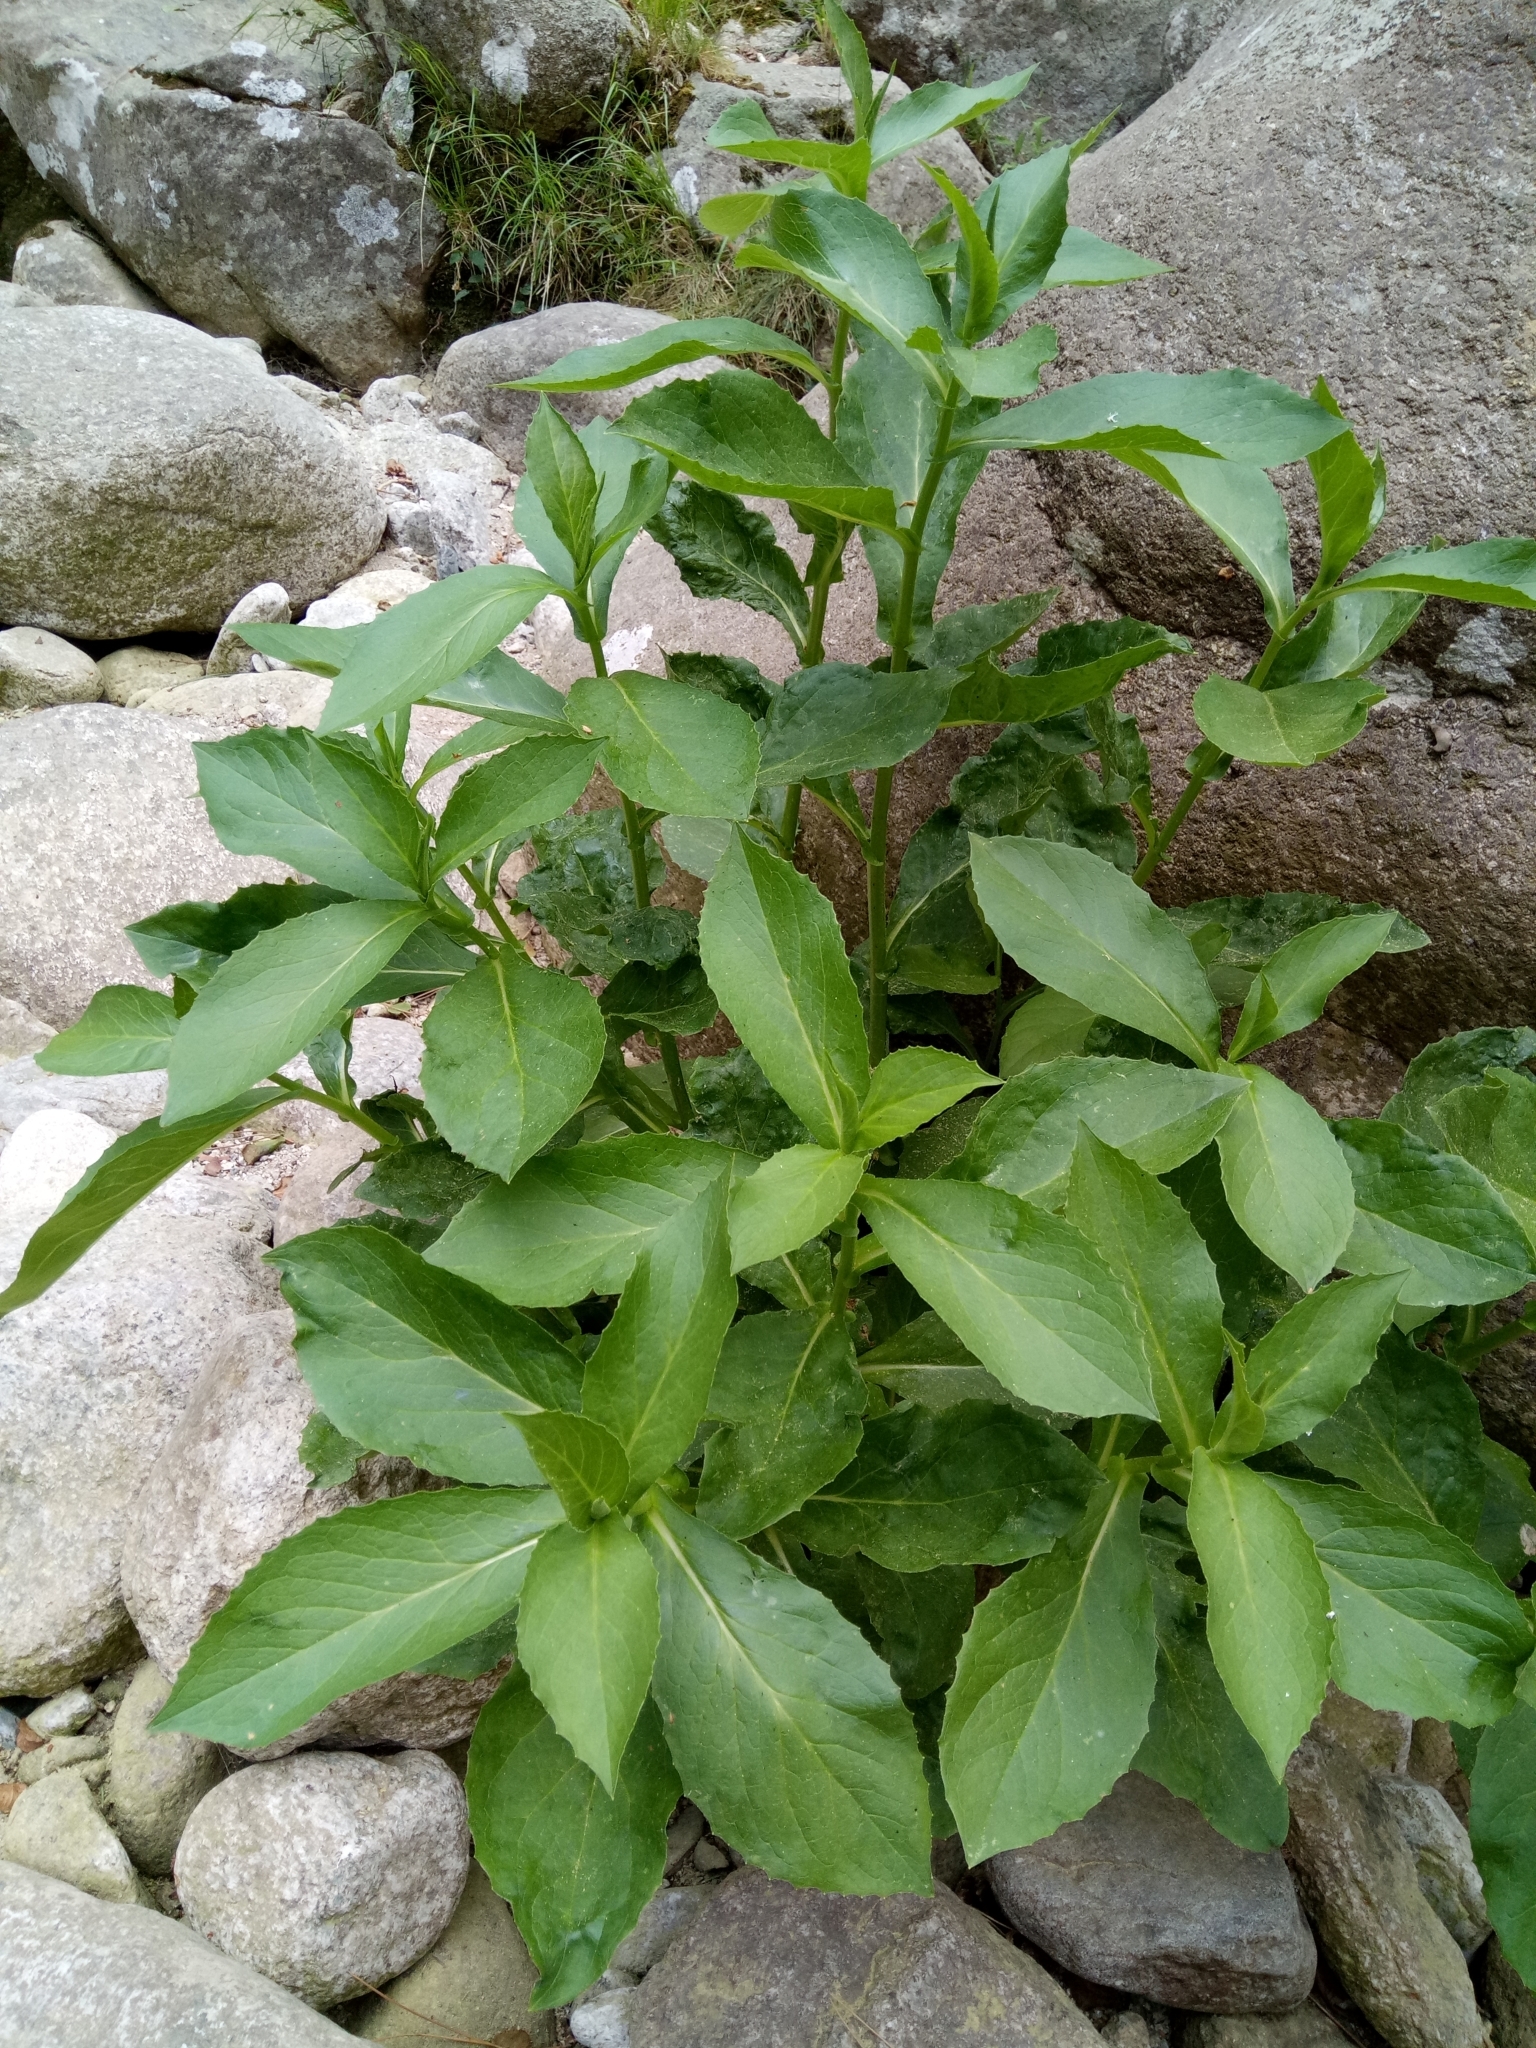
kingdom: Plantae
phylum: Tracheophyta
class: Magnoliopsida
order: Asterales
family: Asteraceae
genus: Doronicum
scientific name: Doronicum corsicum
